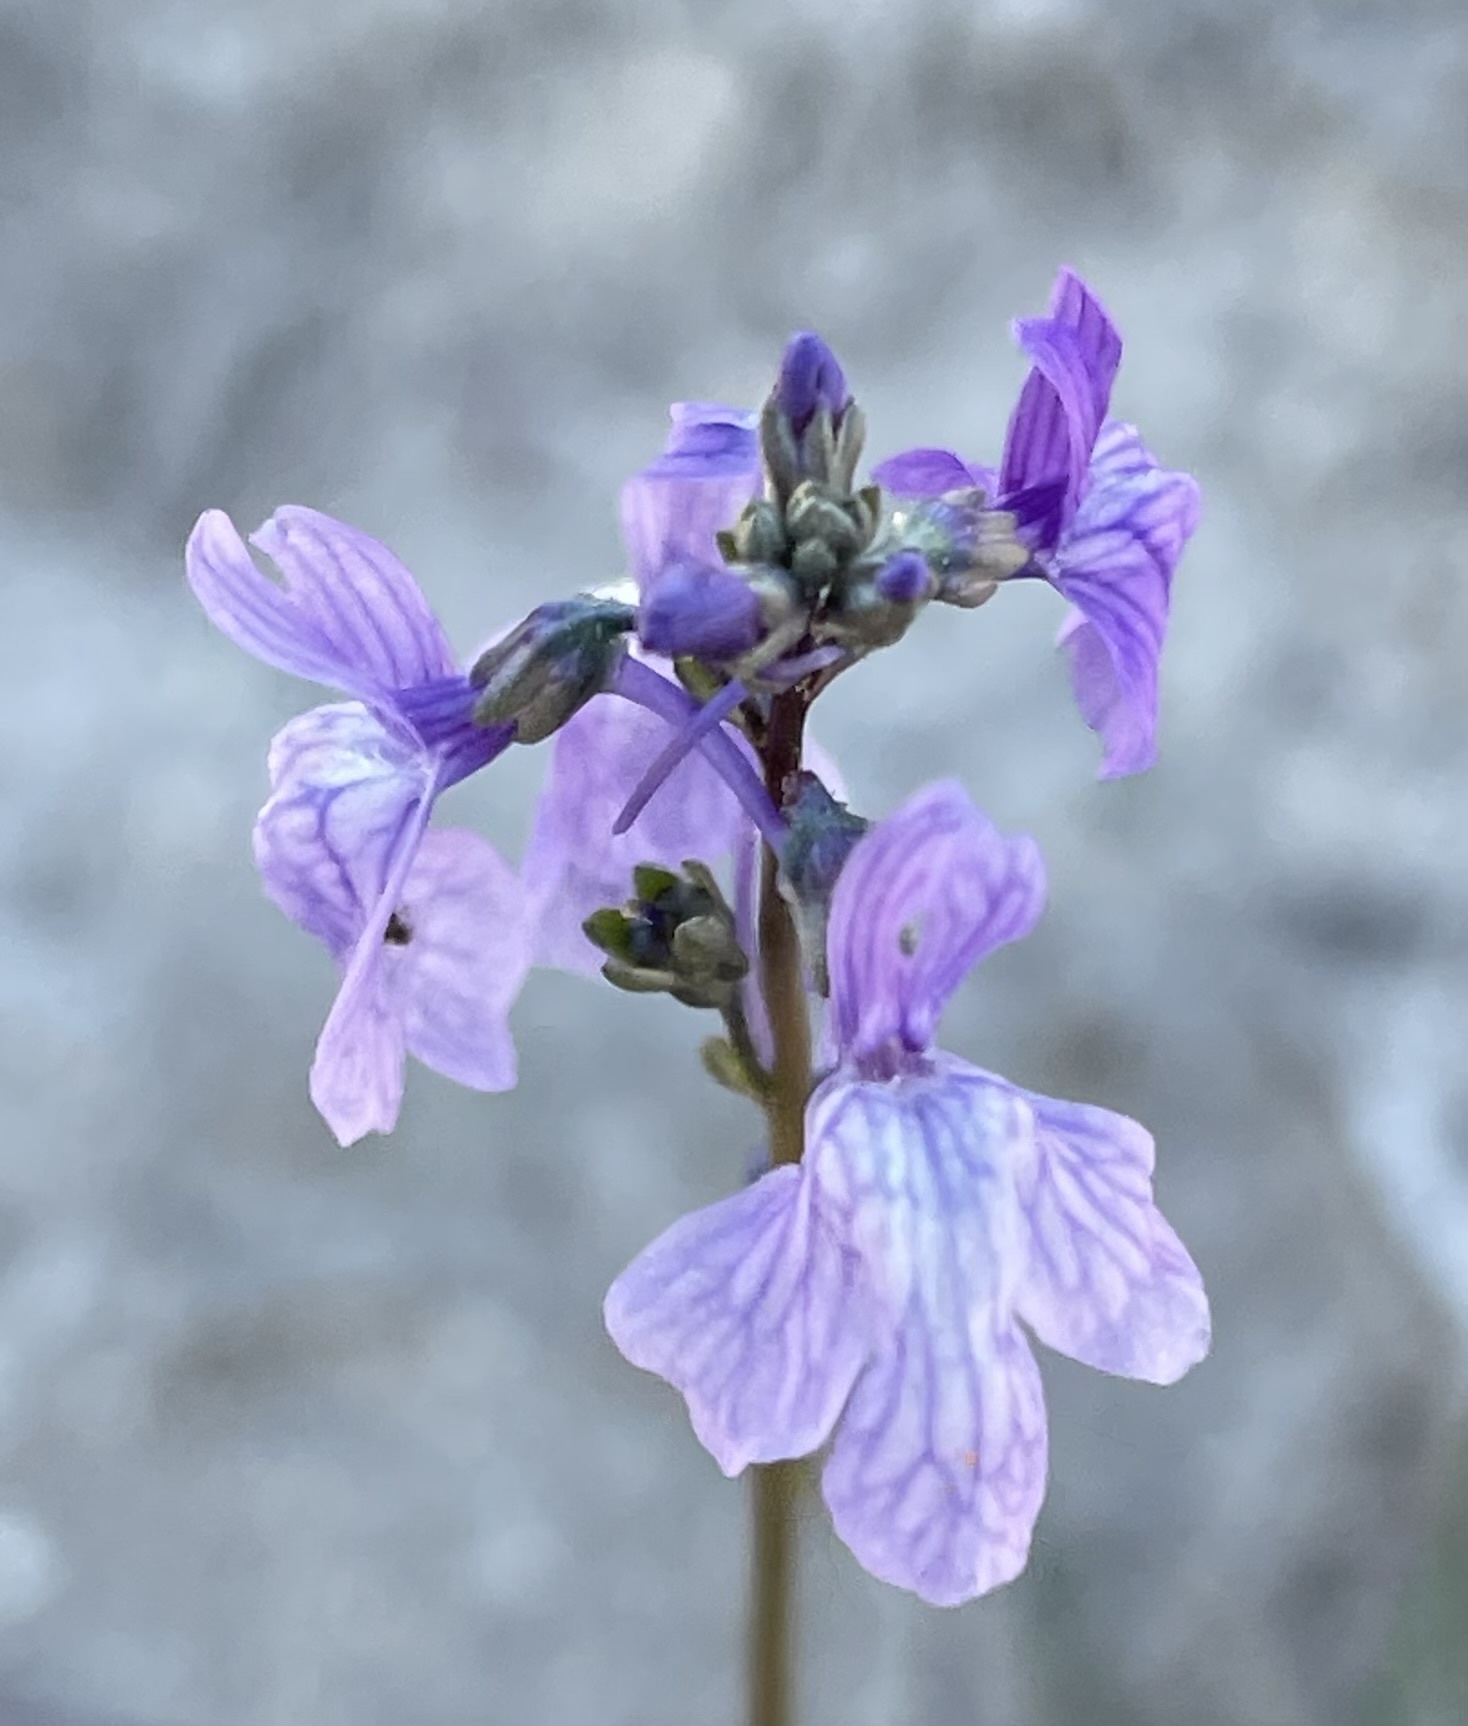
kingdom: Plantae
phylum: Tracheophyta
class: Magnoliopsida
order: Lamiales
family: Plantaginaceae
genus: Nuttallanthus
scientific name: Nuttallanthus texanus
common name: Texas toadflax
